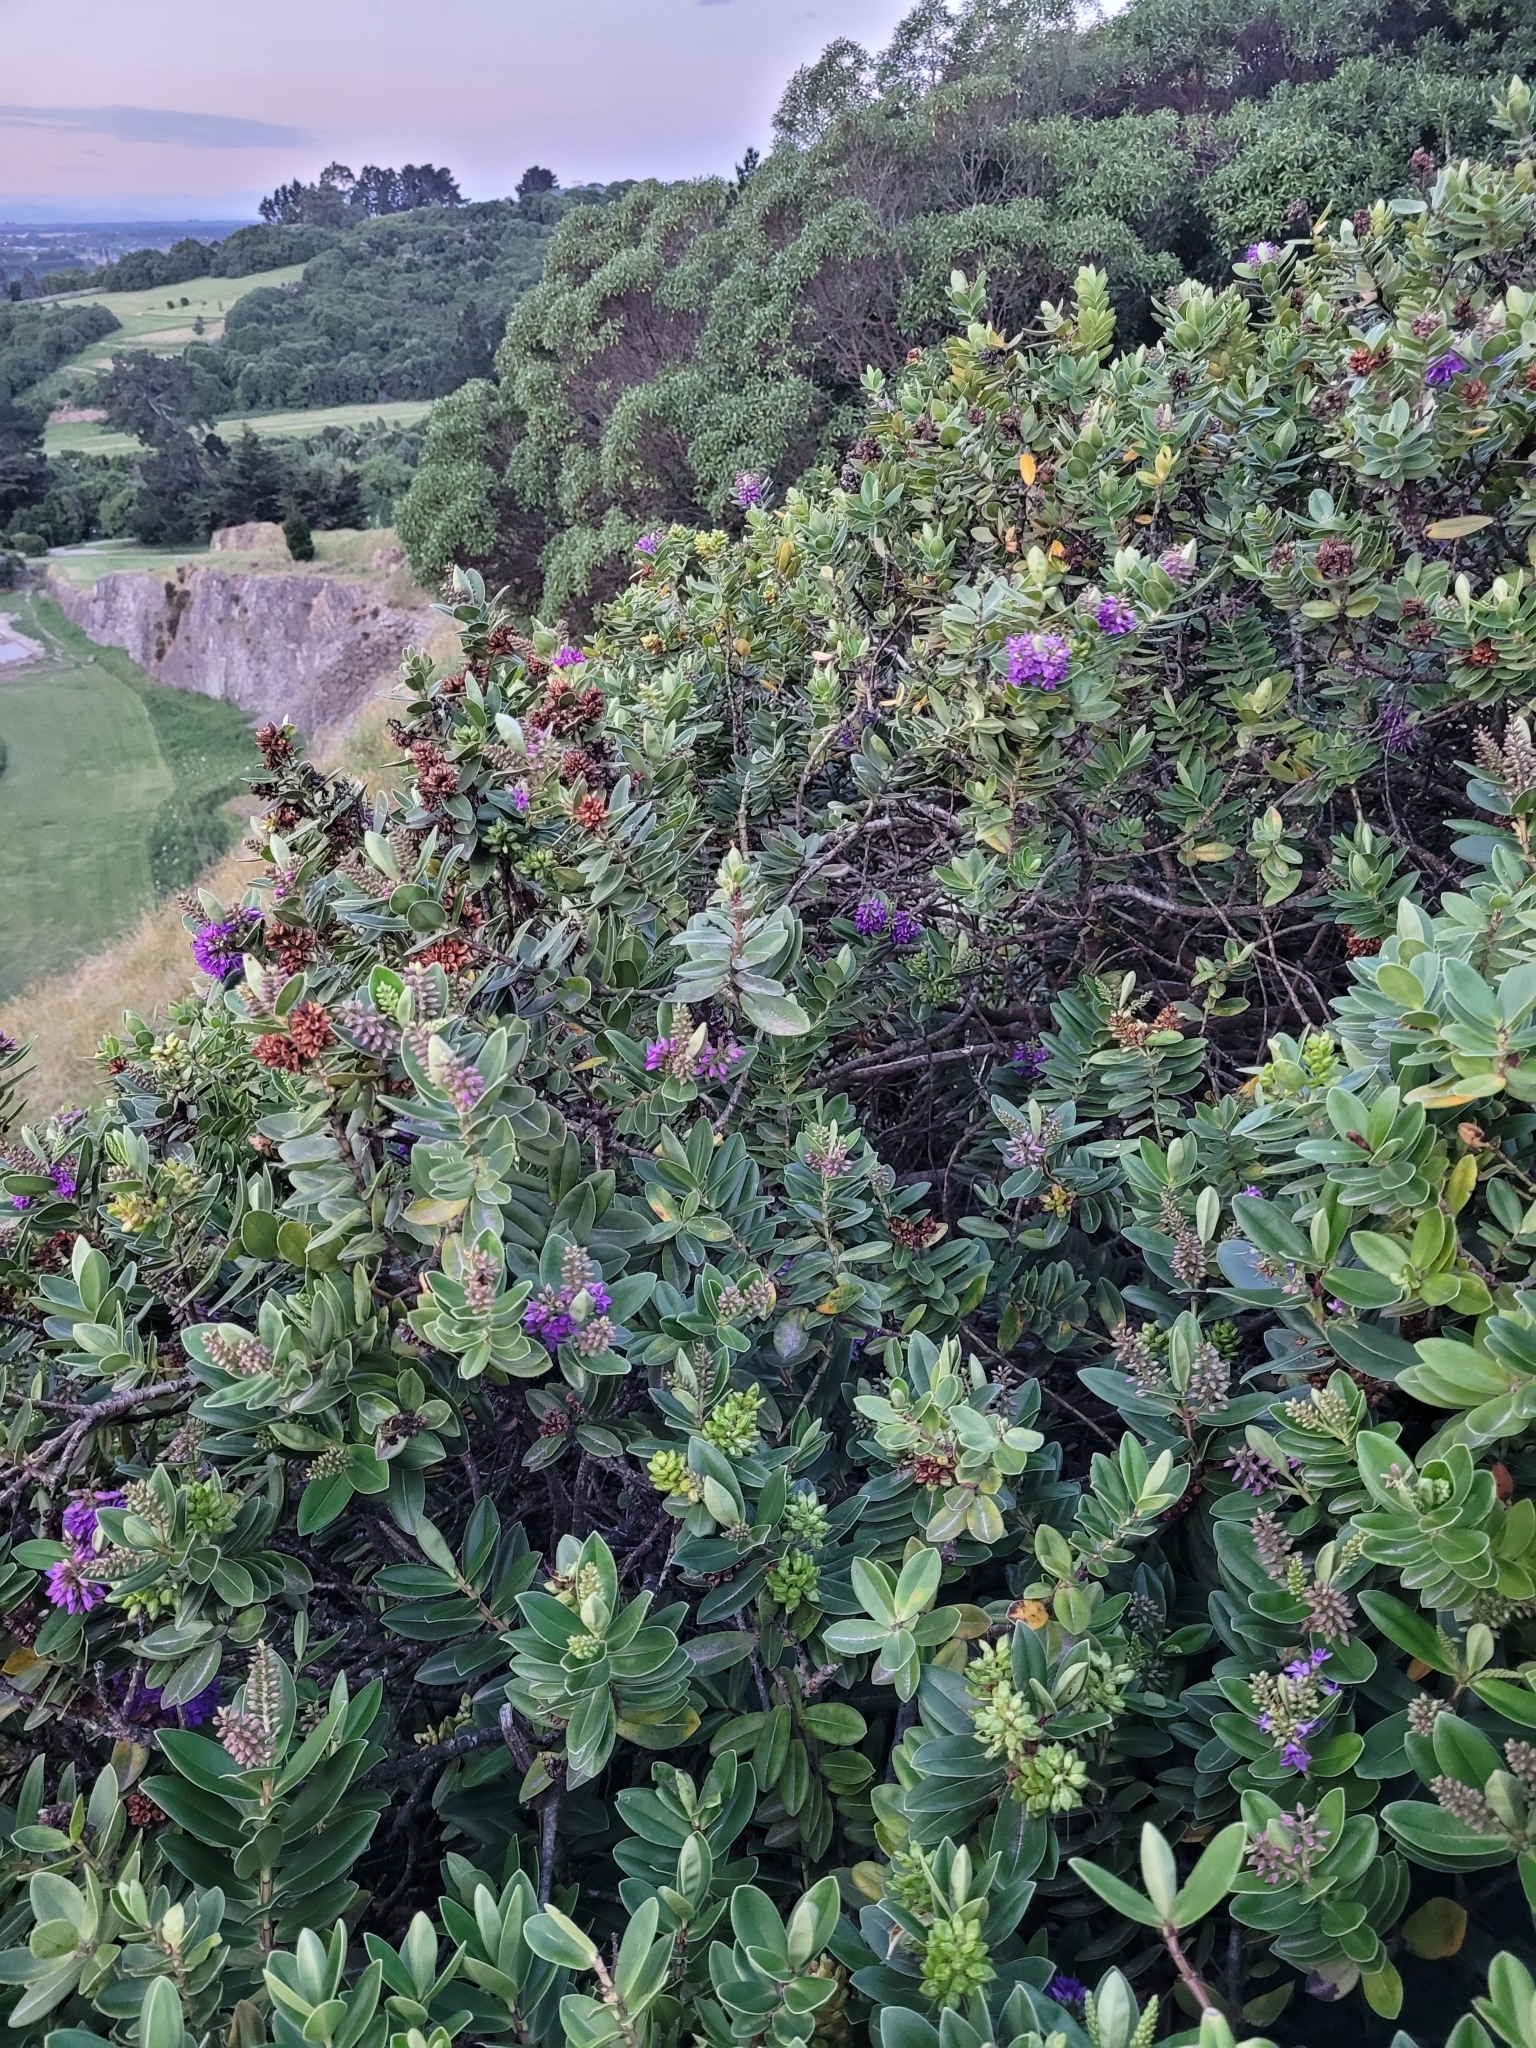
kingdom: Plantae
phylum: Tracheophyta
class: Magnoliopsida
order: Lamiales
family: Plantaginaceae
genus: Veronica
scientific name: Veronica elliptica
